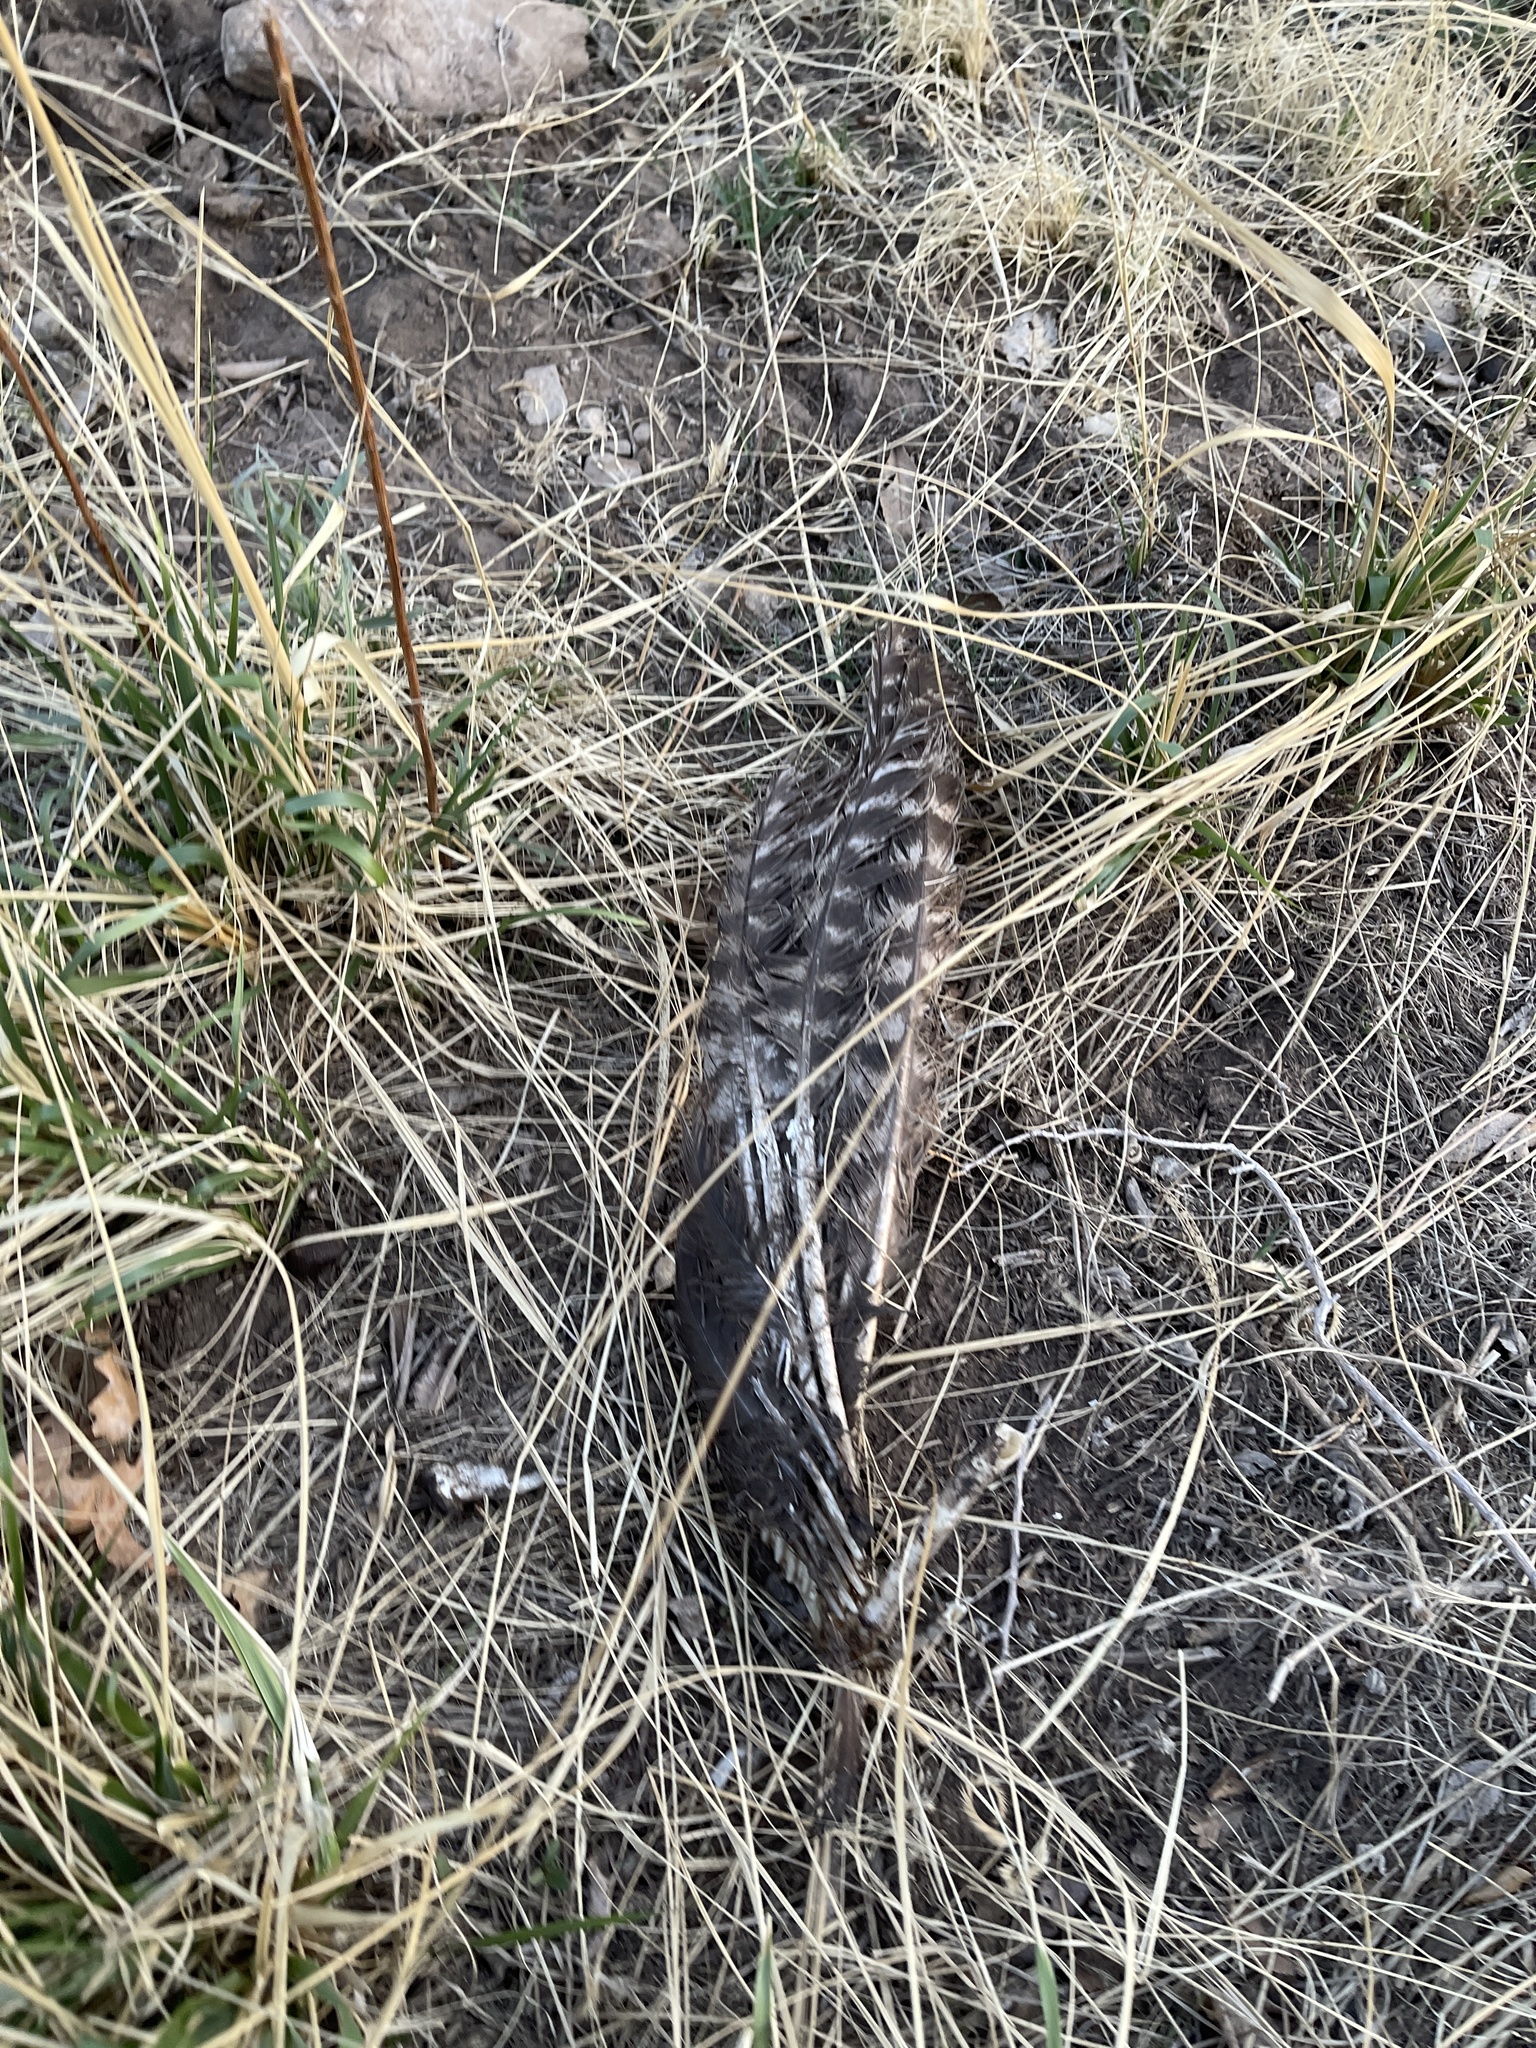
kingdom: Animalia
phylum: Chordata
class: Aves
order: Galliformes
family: Phasianidae
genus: Meleagris
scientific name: Meleagris gallopavo
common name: Wild turkey
